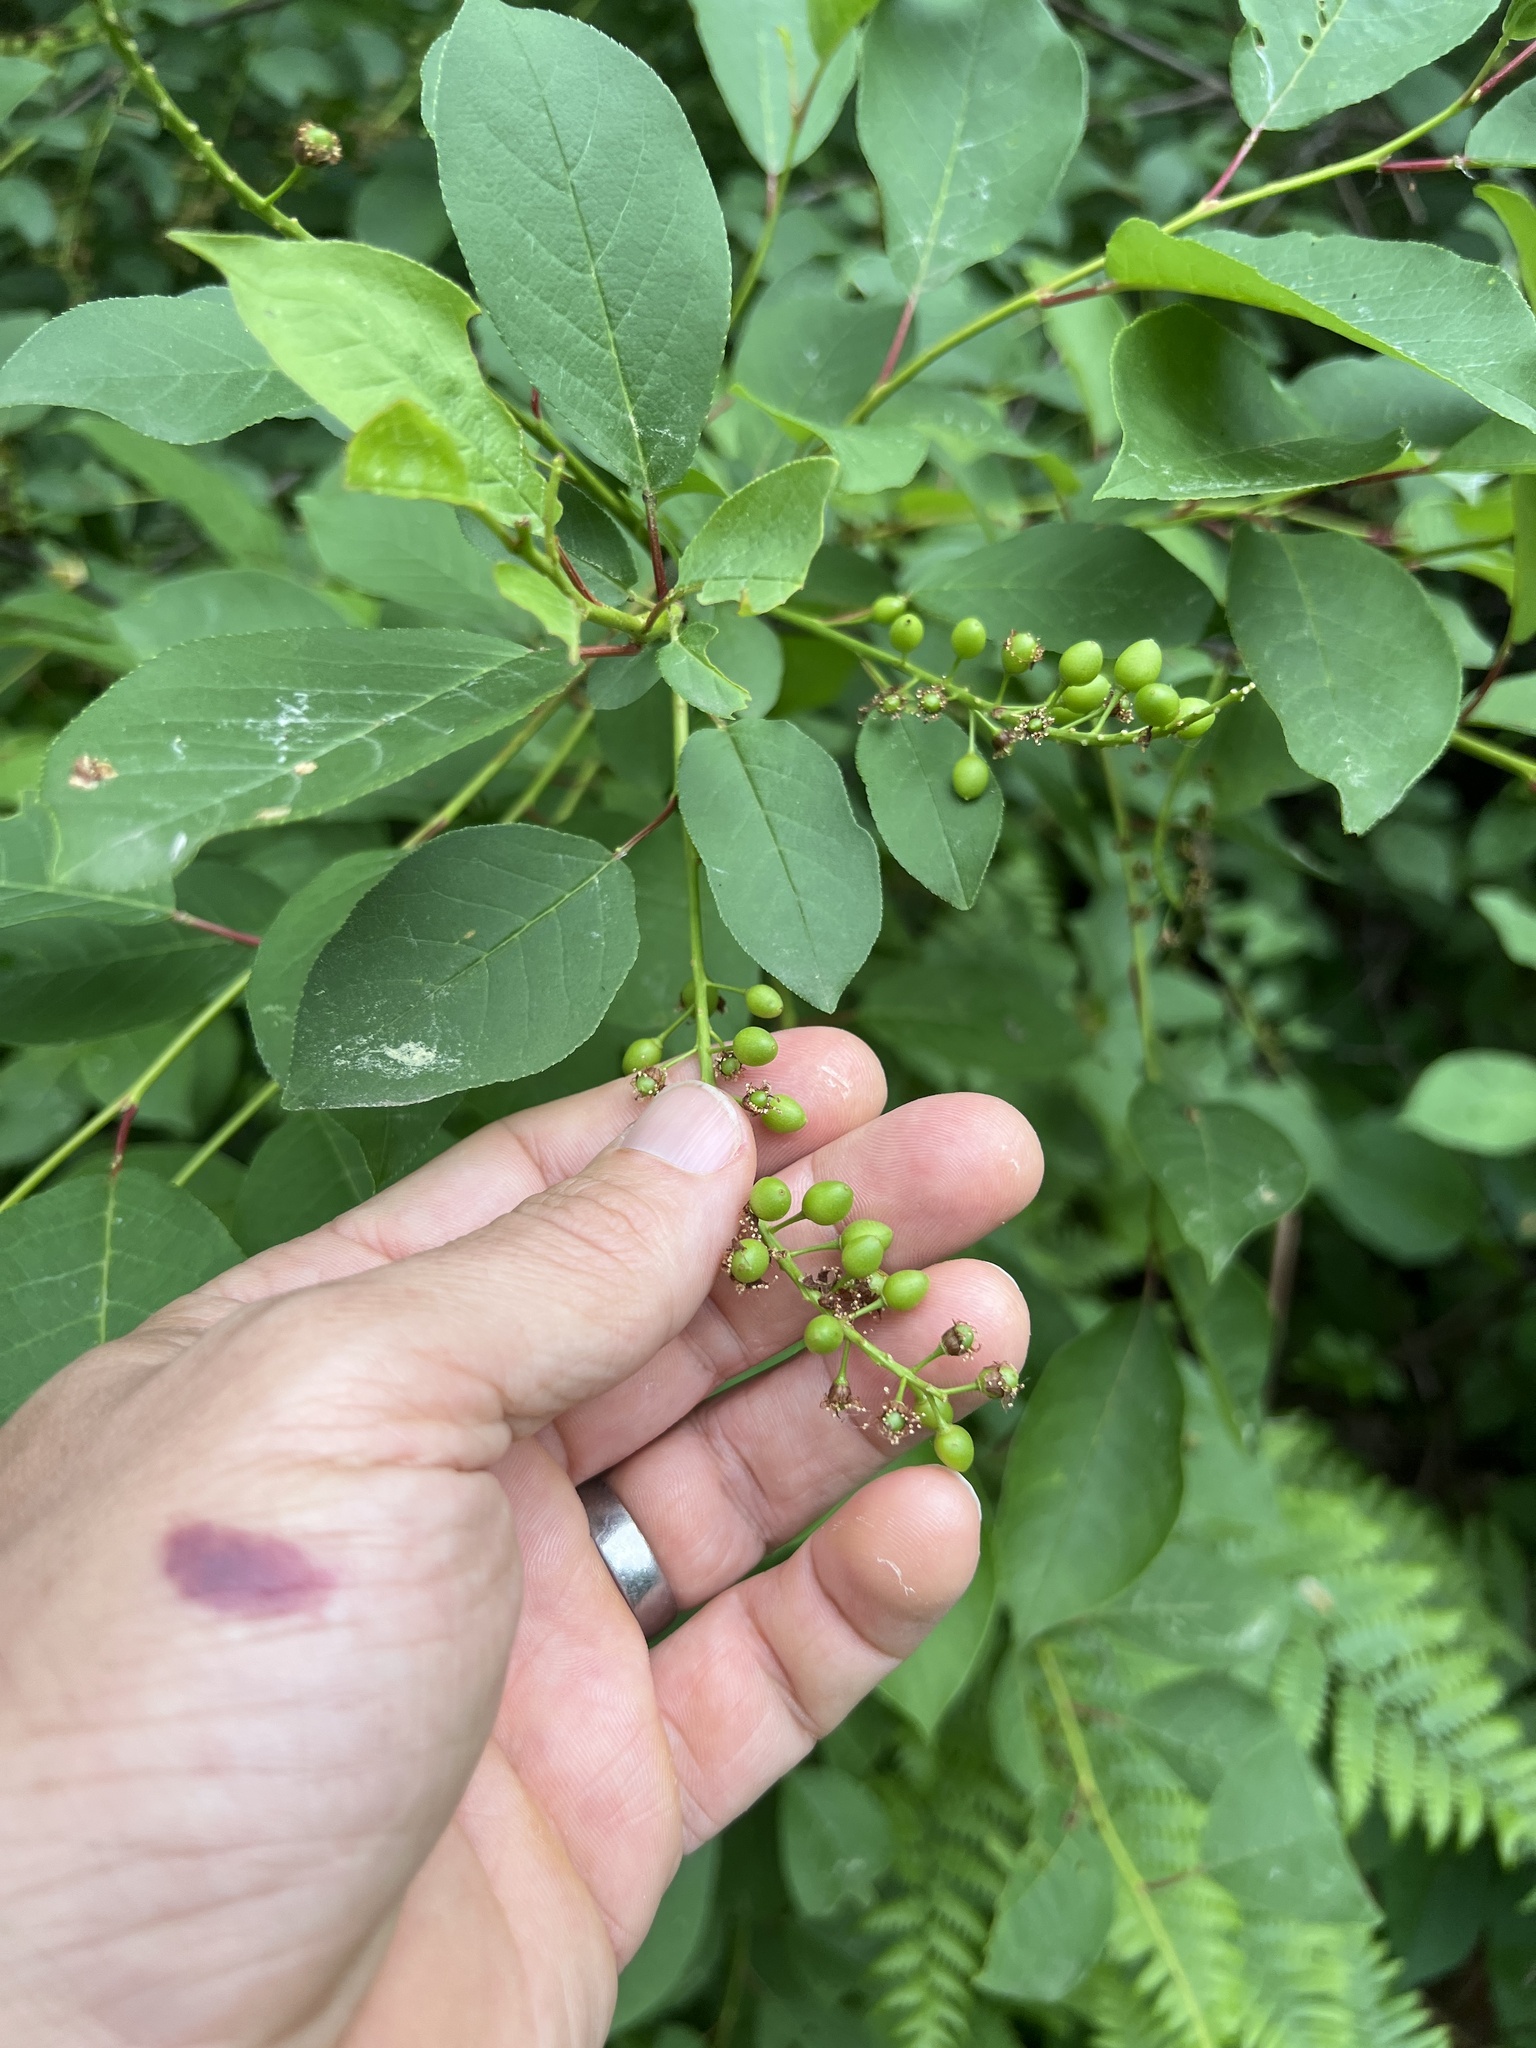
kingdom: Plantae
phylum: Tracheophyta
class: Magnoliopsida
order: Rosales
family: Rosaceae
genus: Prunus
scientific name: Prunus virginiana
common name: Chokecherry
